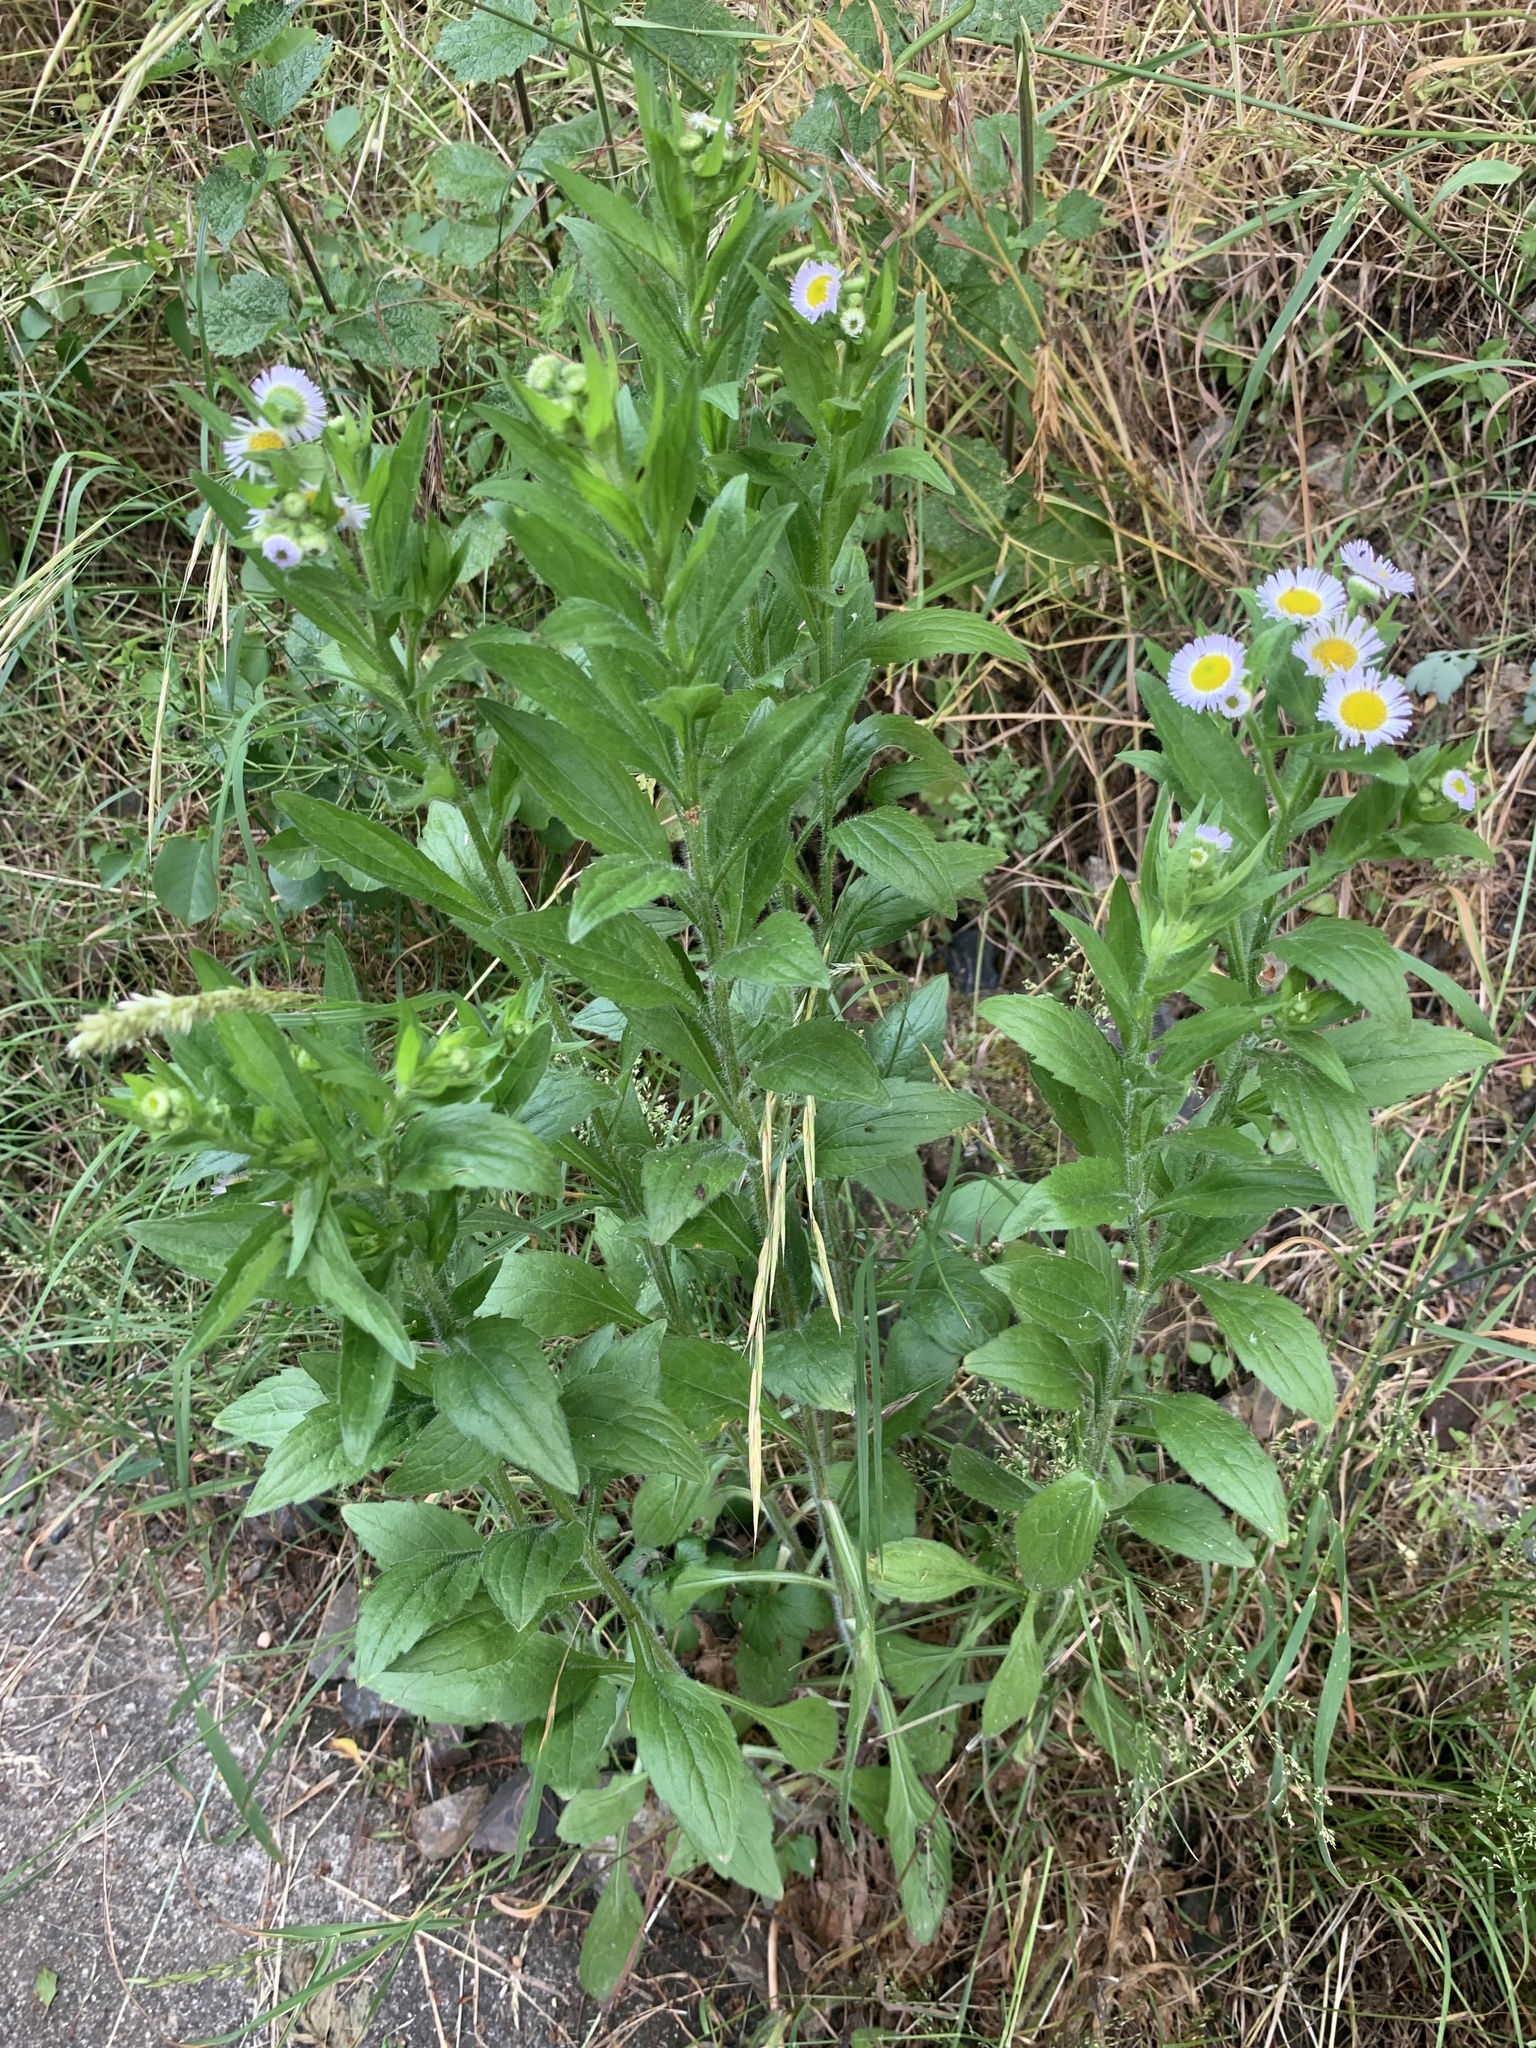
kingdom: Plantae
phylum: Tracheophyta
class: Magnoliopsida
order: Asterales
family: Asteraceae
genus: Erigeron
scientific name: Erigeron annuus
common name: Tall fleabane
